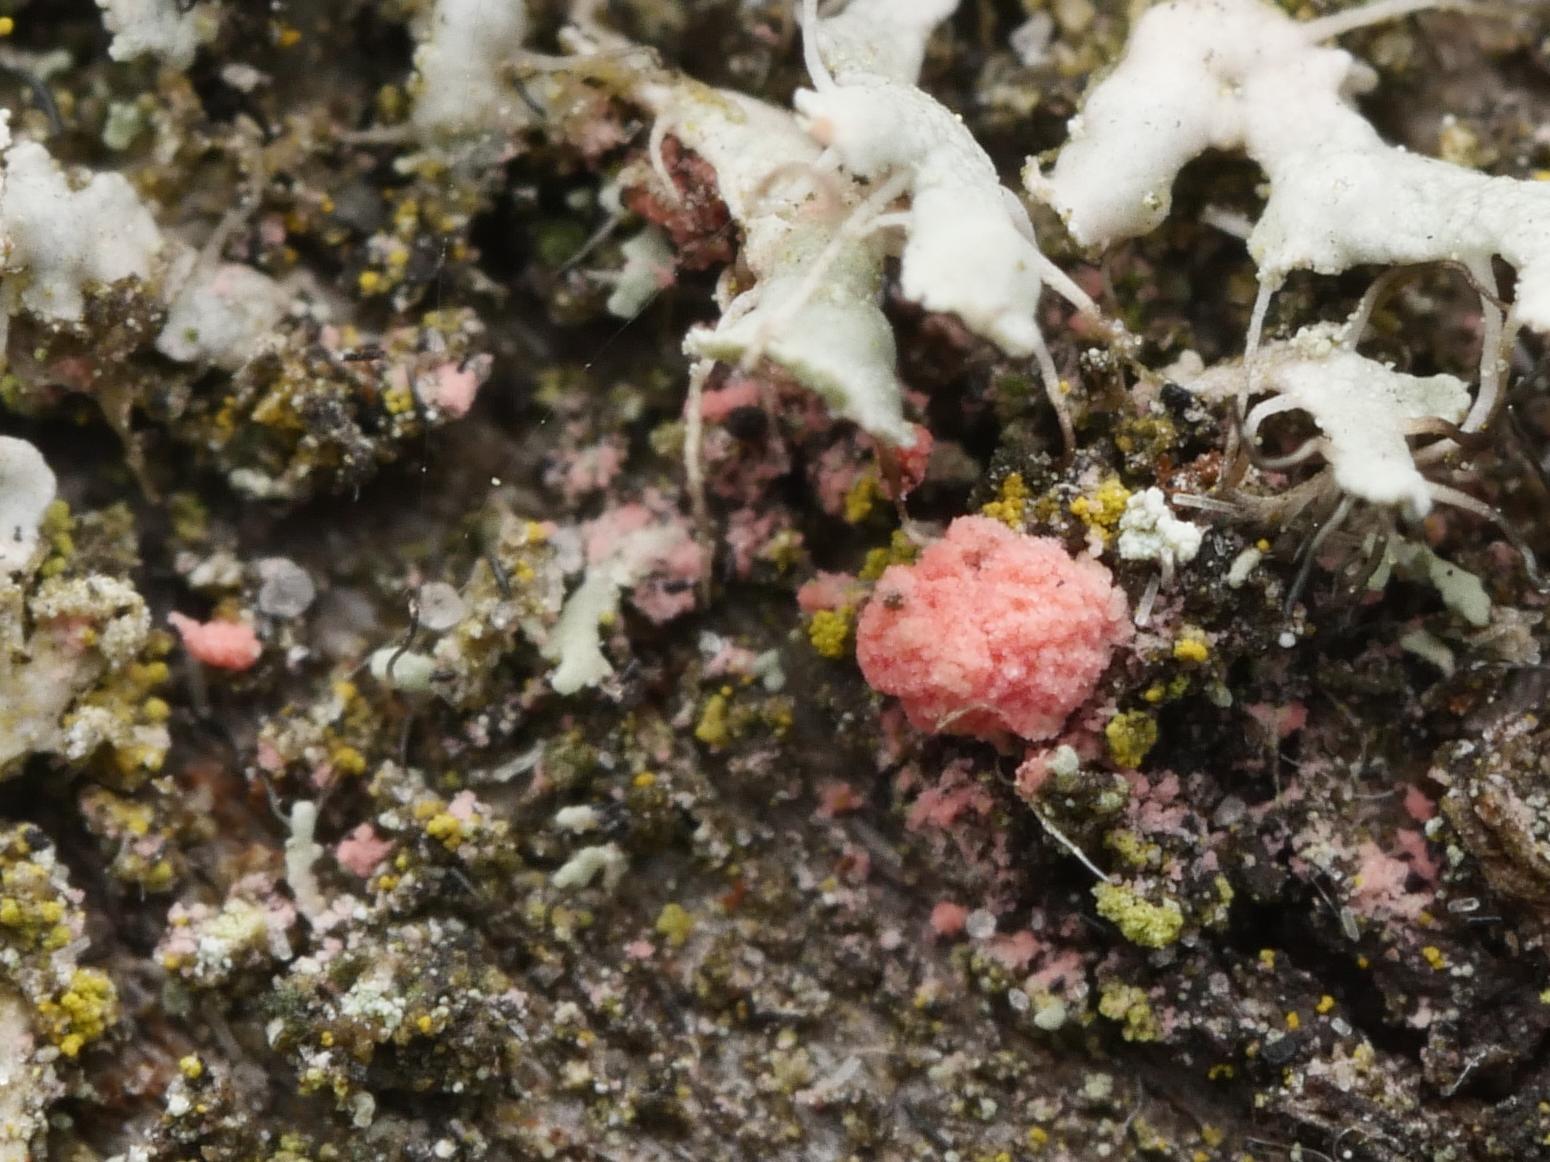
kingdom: Fungi
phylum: Ascomycota
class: Sordariomycetes
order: Hypocreales
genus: Illosporiopsis
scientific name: Illosporiopsis christiansenii
